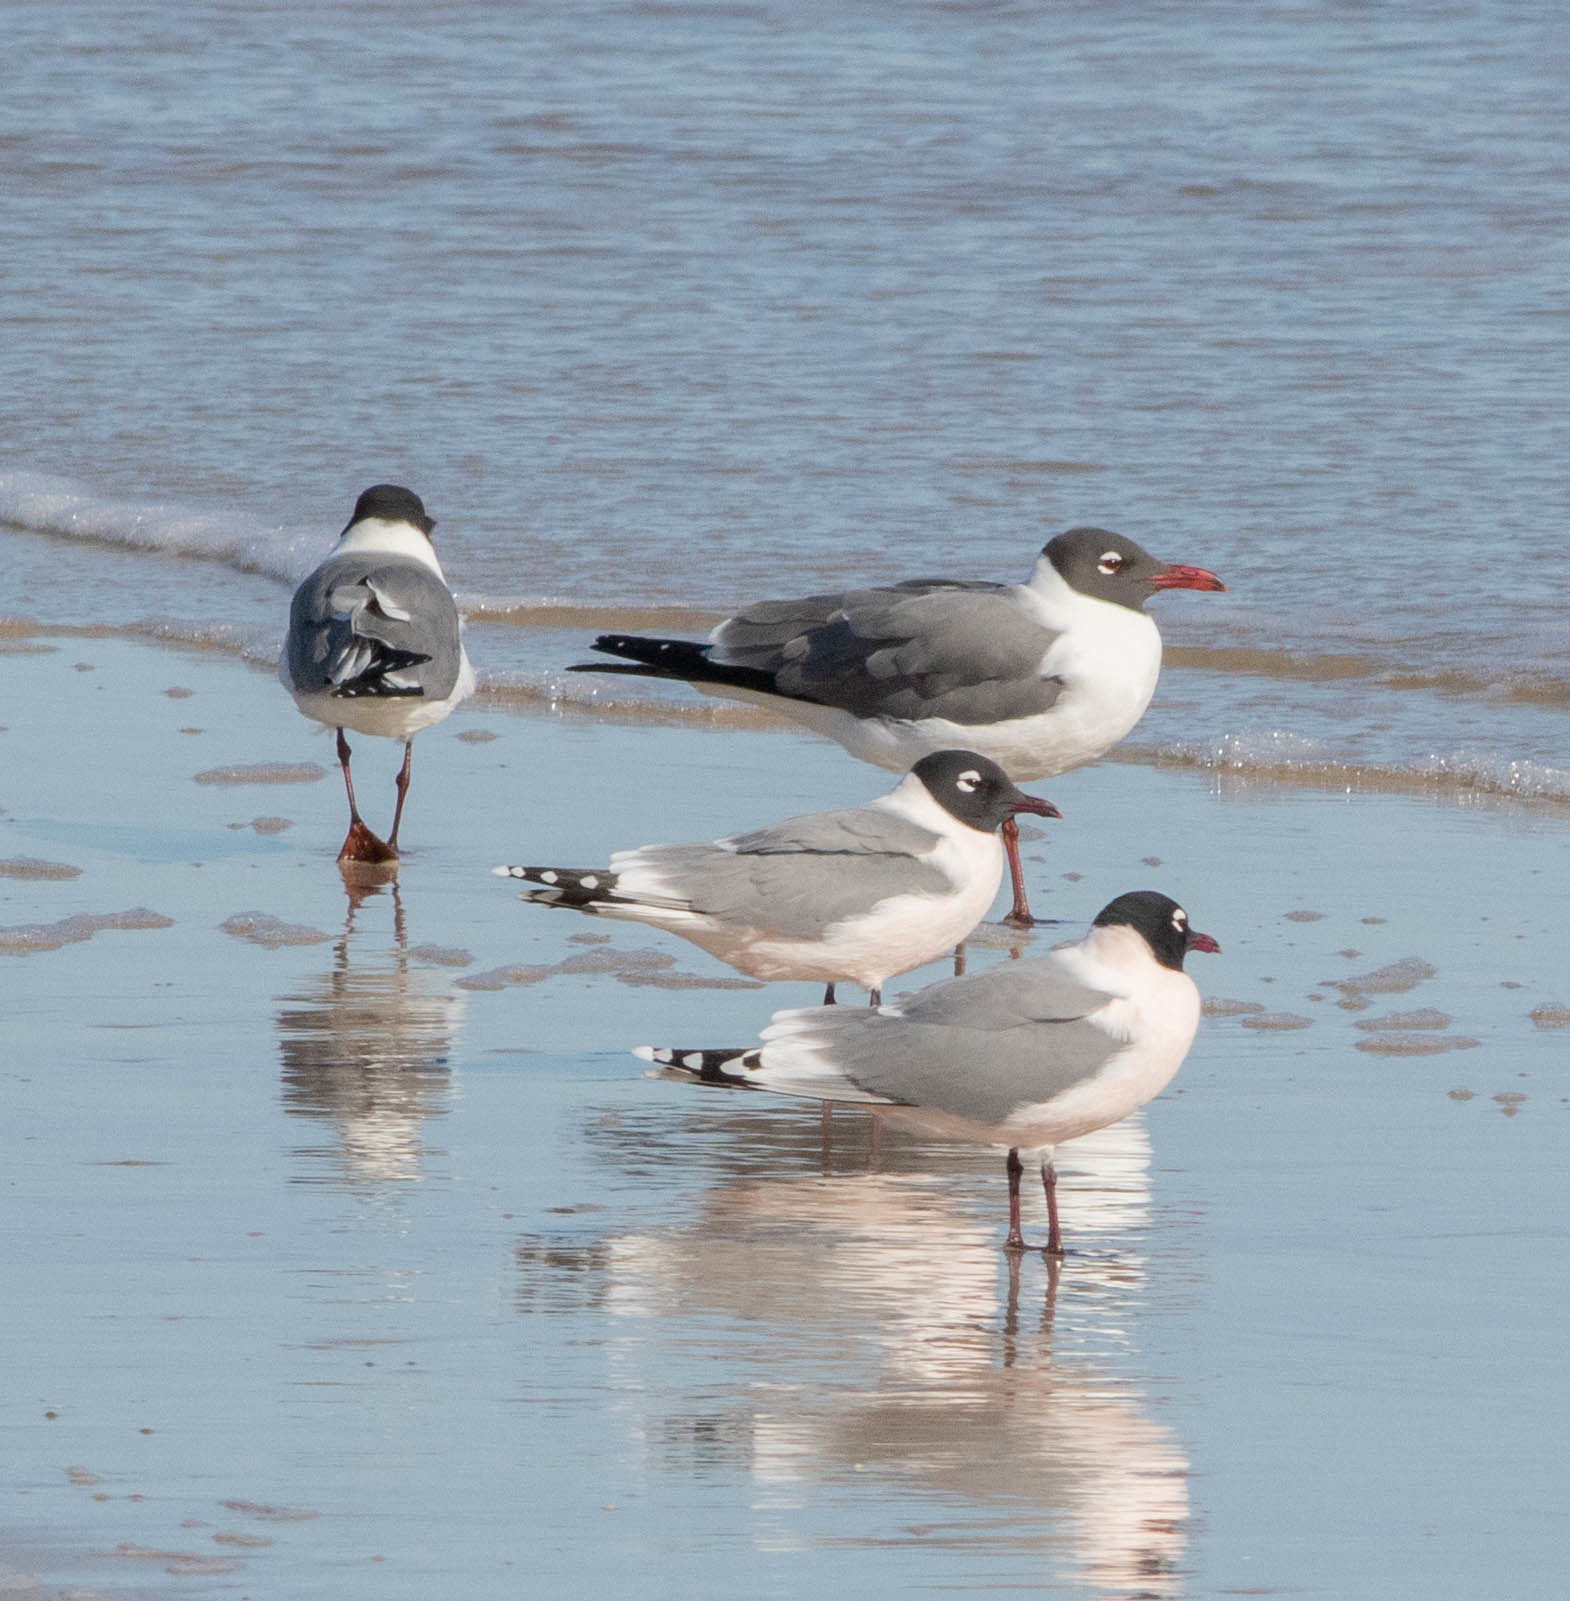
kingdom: Animalia
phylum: Chordata
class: Aves
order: Charadriiformes
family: Laridae
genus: Leucophaeus
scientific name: Leucophaeus pipixcan
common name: Franklin's gull
